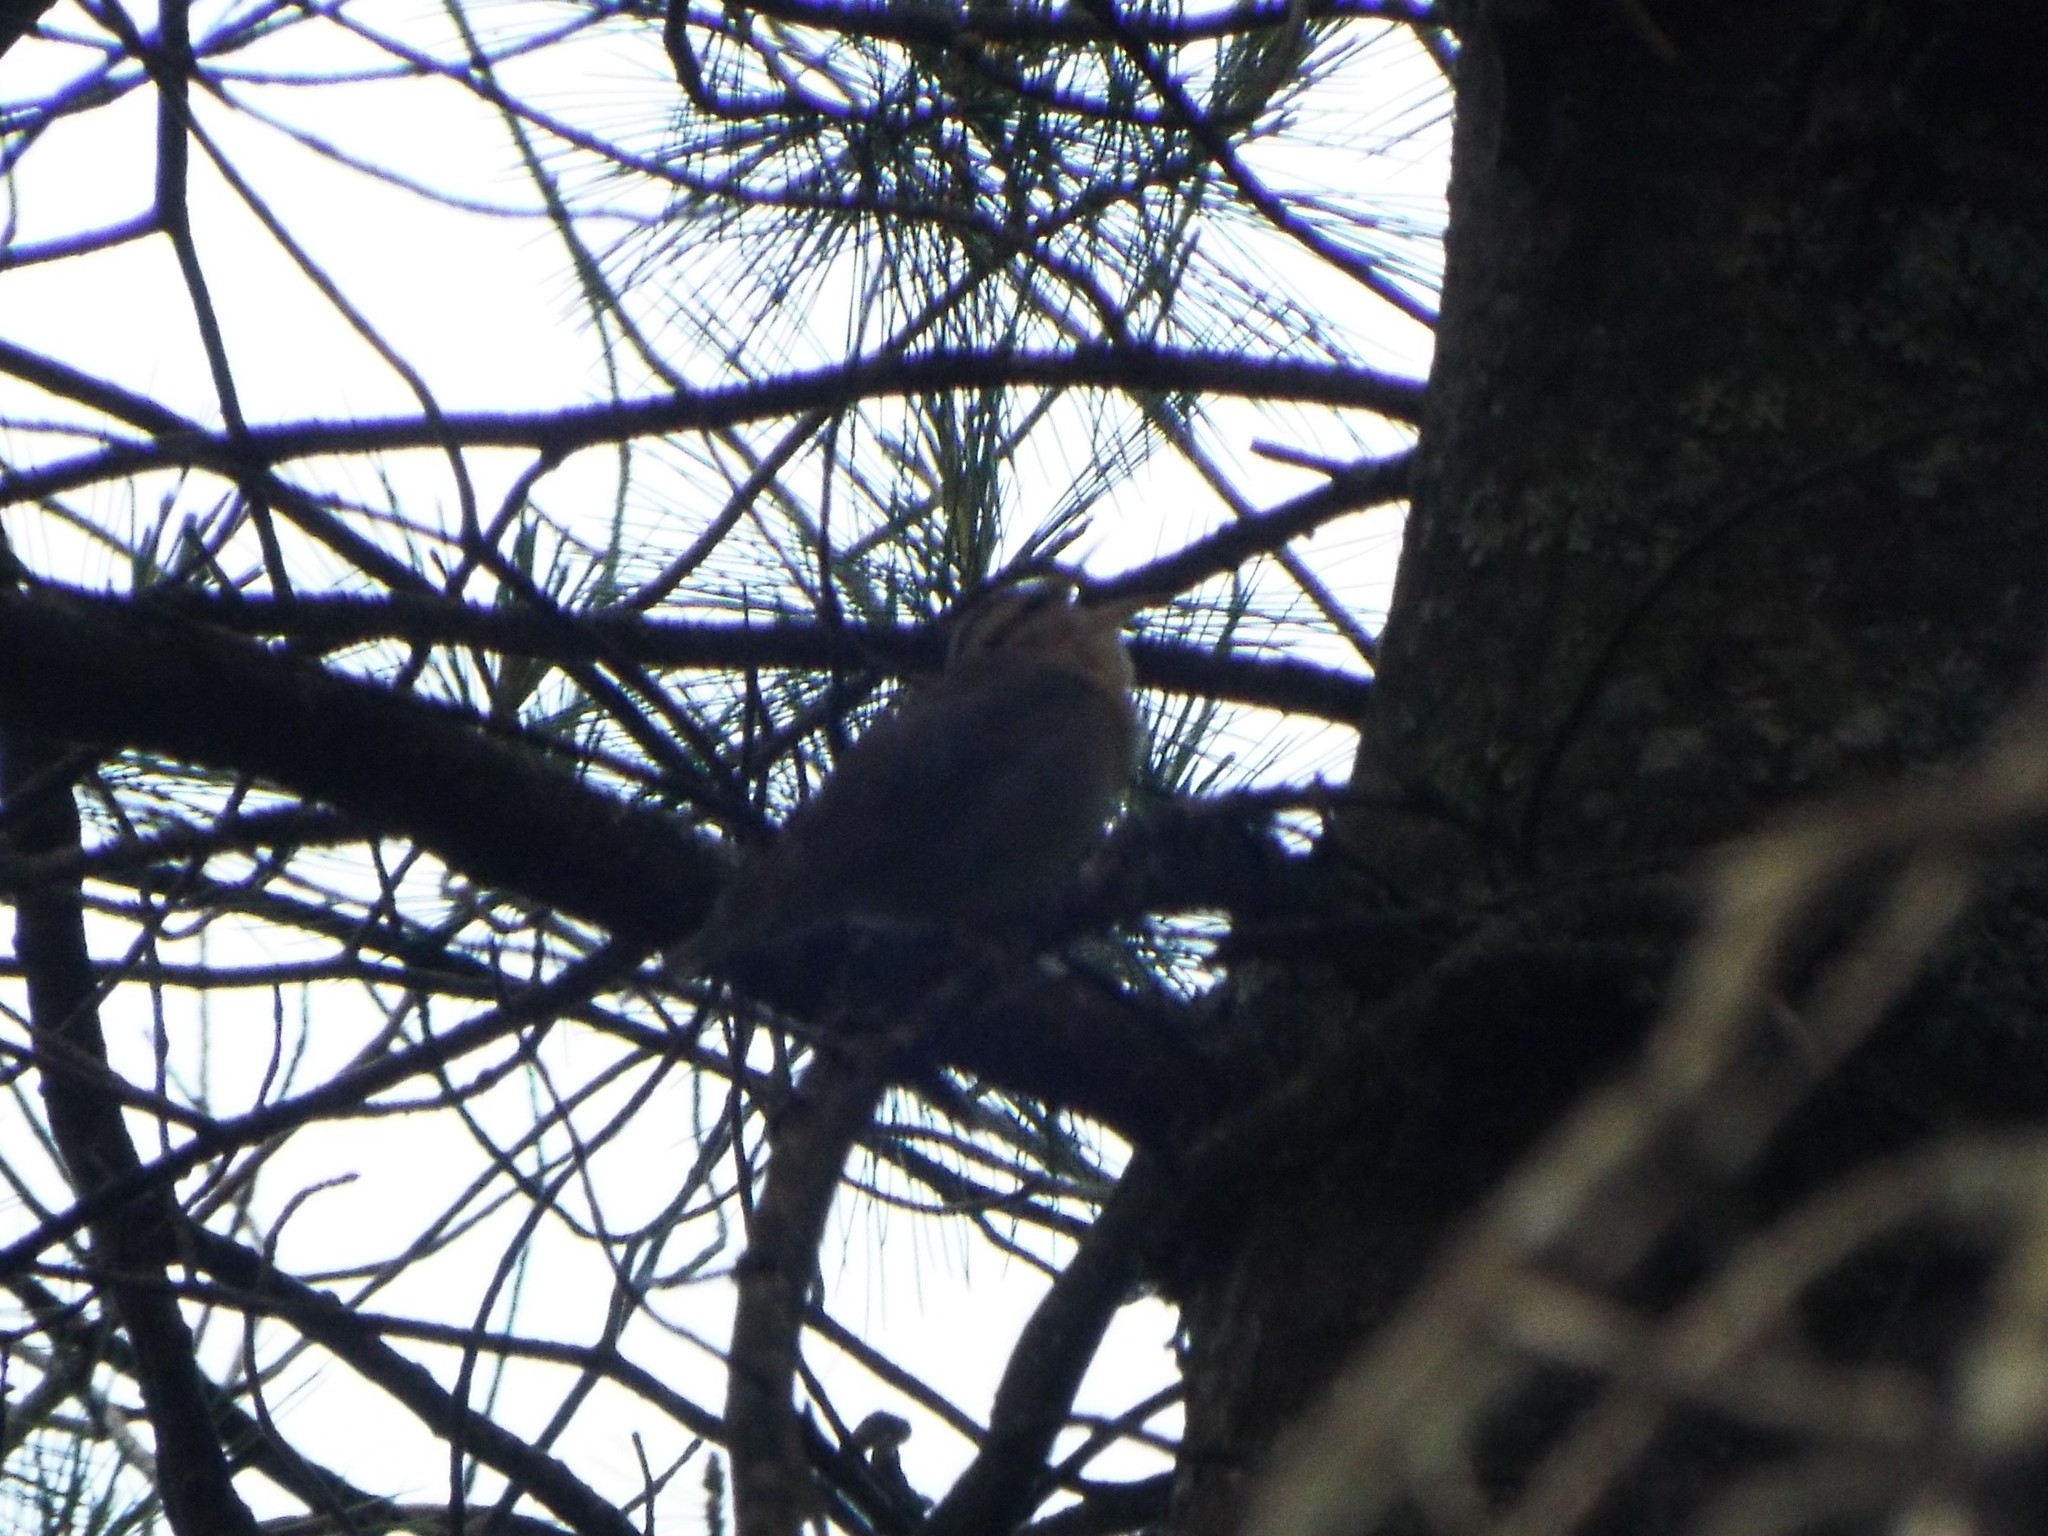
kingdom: Animalia
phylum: Chordata
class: Aves
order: Passeriformes
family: Parulidae
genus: Helmitheros
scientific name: Helmitheros vermivorum
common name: Worm-eating warbler
